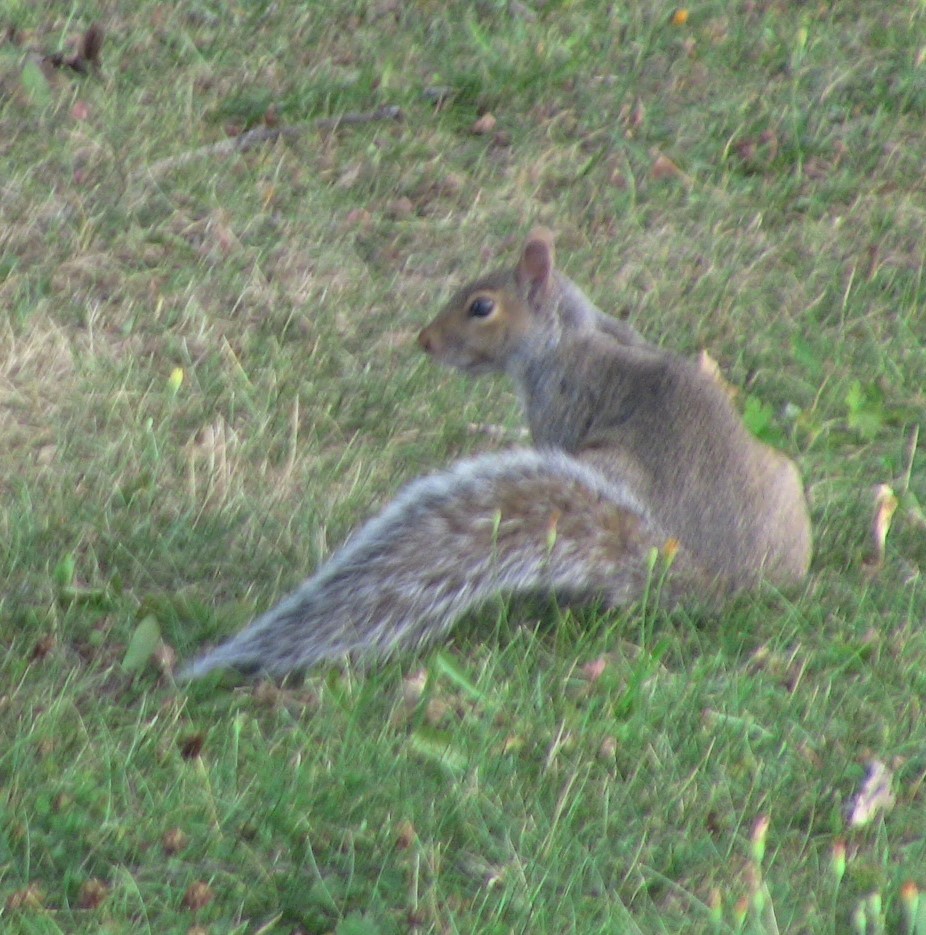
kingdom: Animalia
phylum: Chordata
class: Mammalia
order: Rodentia
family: Sciuridae
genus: Sciurus
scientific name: Sciurus carolinensis
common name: Eastern gray squirrel
